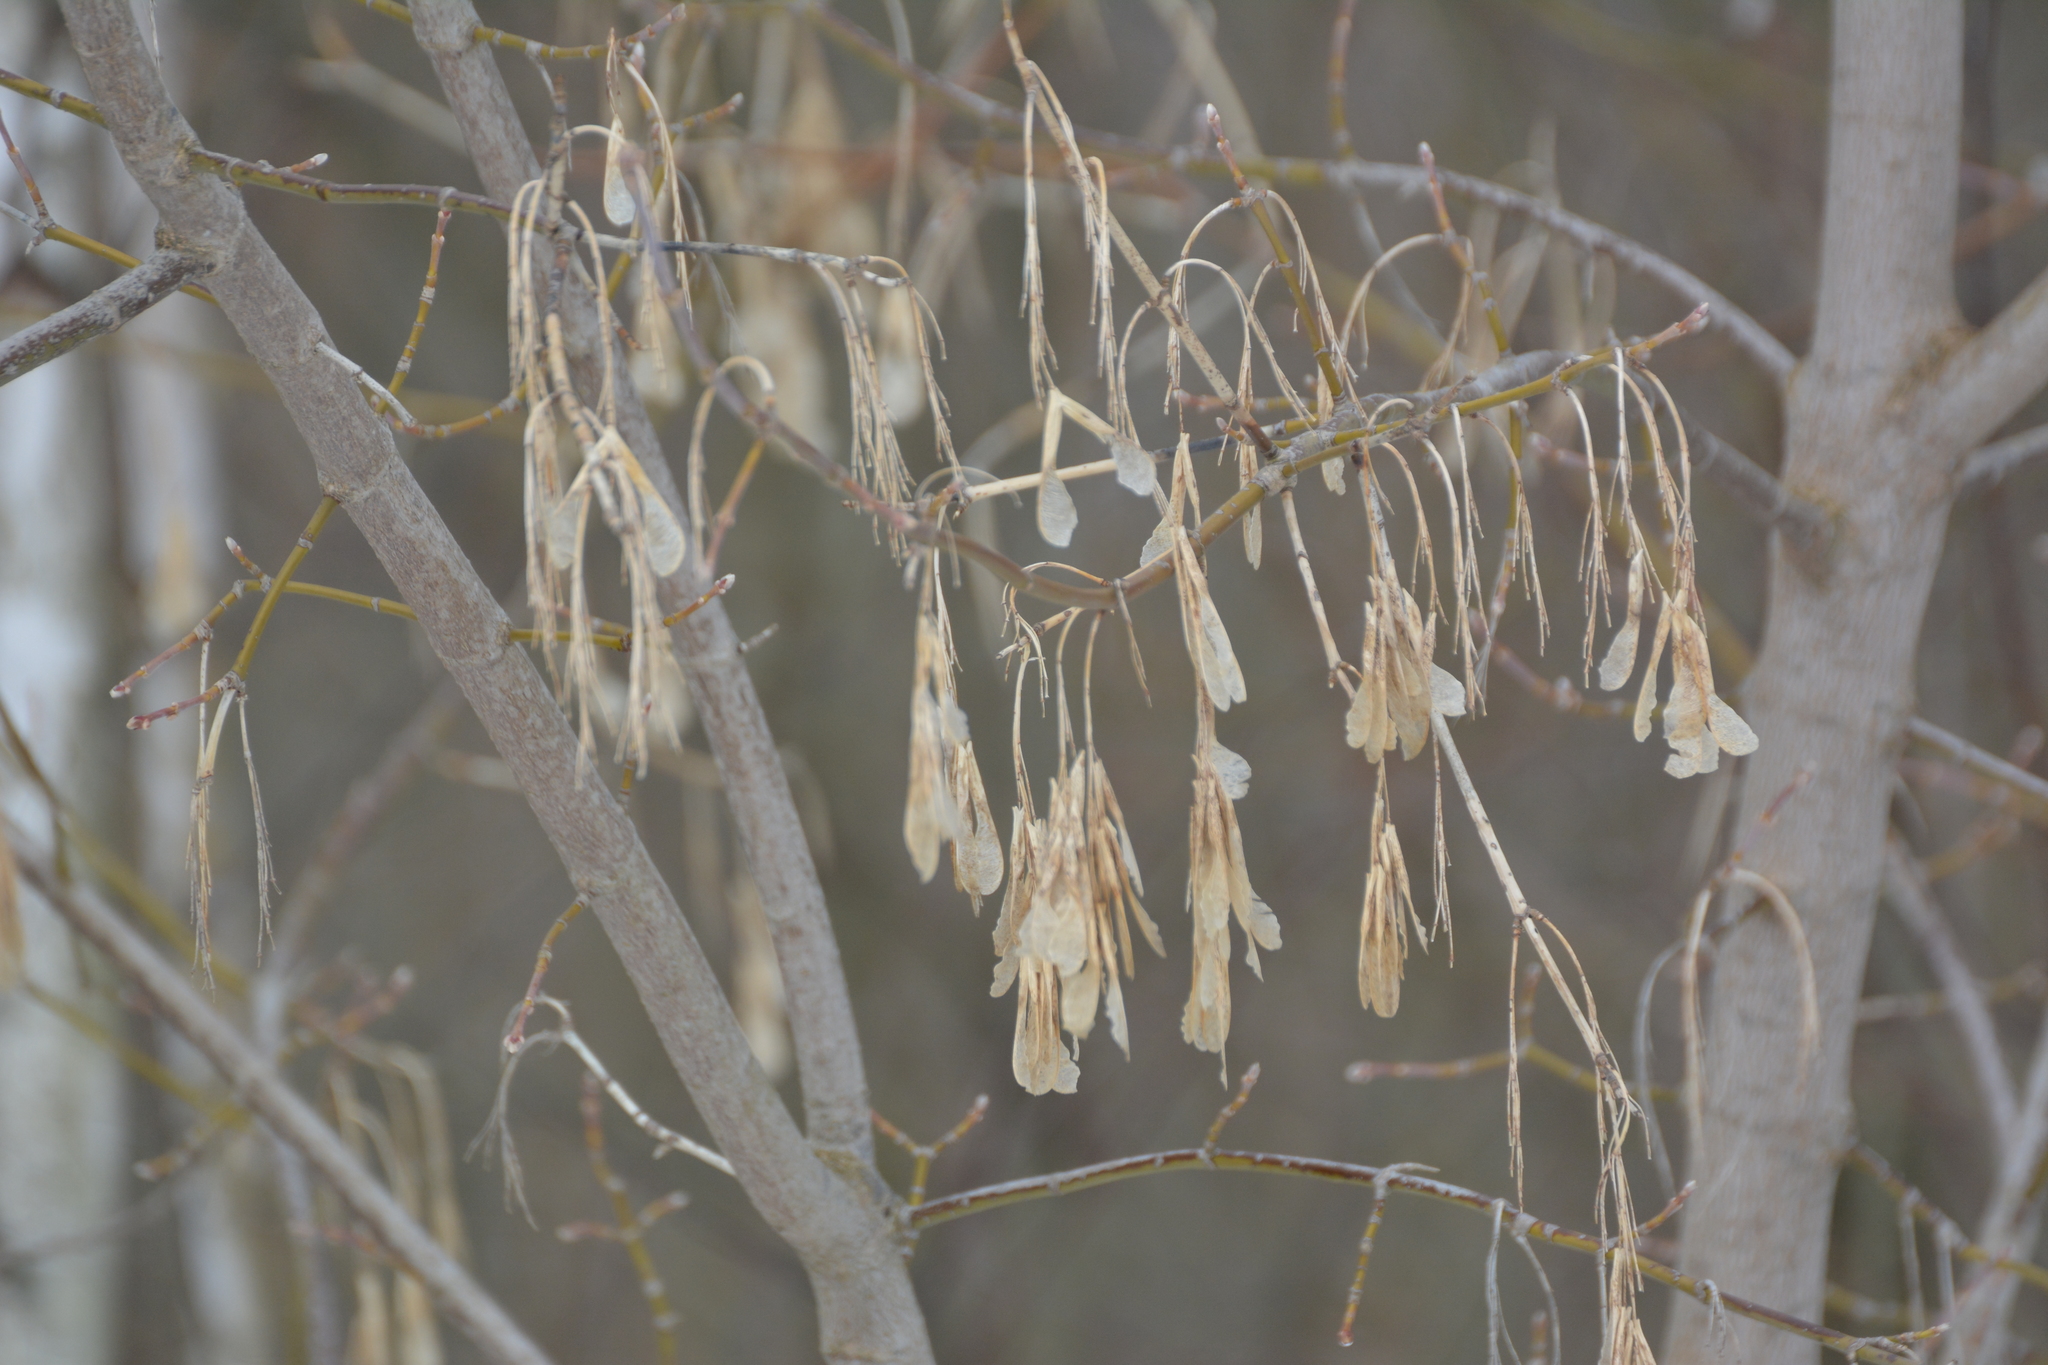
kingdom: Plantae
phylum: Tracheophyta
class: Magnoliopsida
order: Sapindales
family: Sapindaceae
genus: Acer
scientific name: Acer negundo
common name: Ashleaf maple
